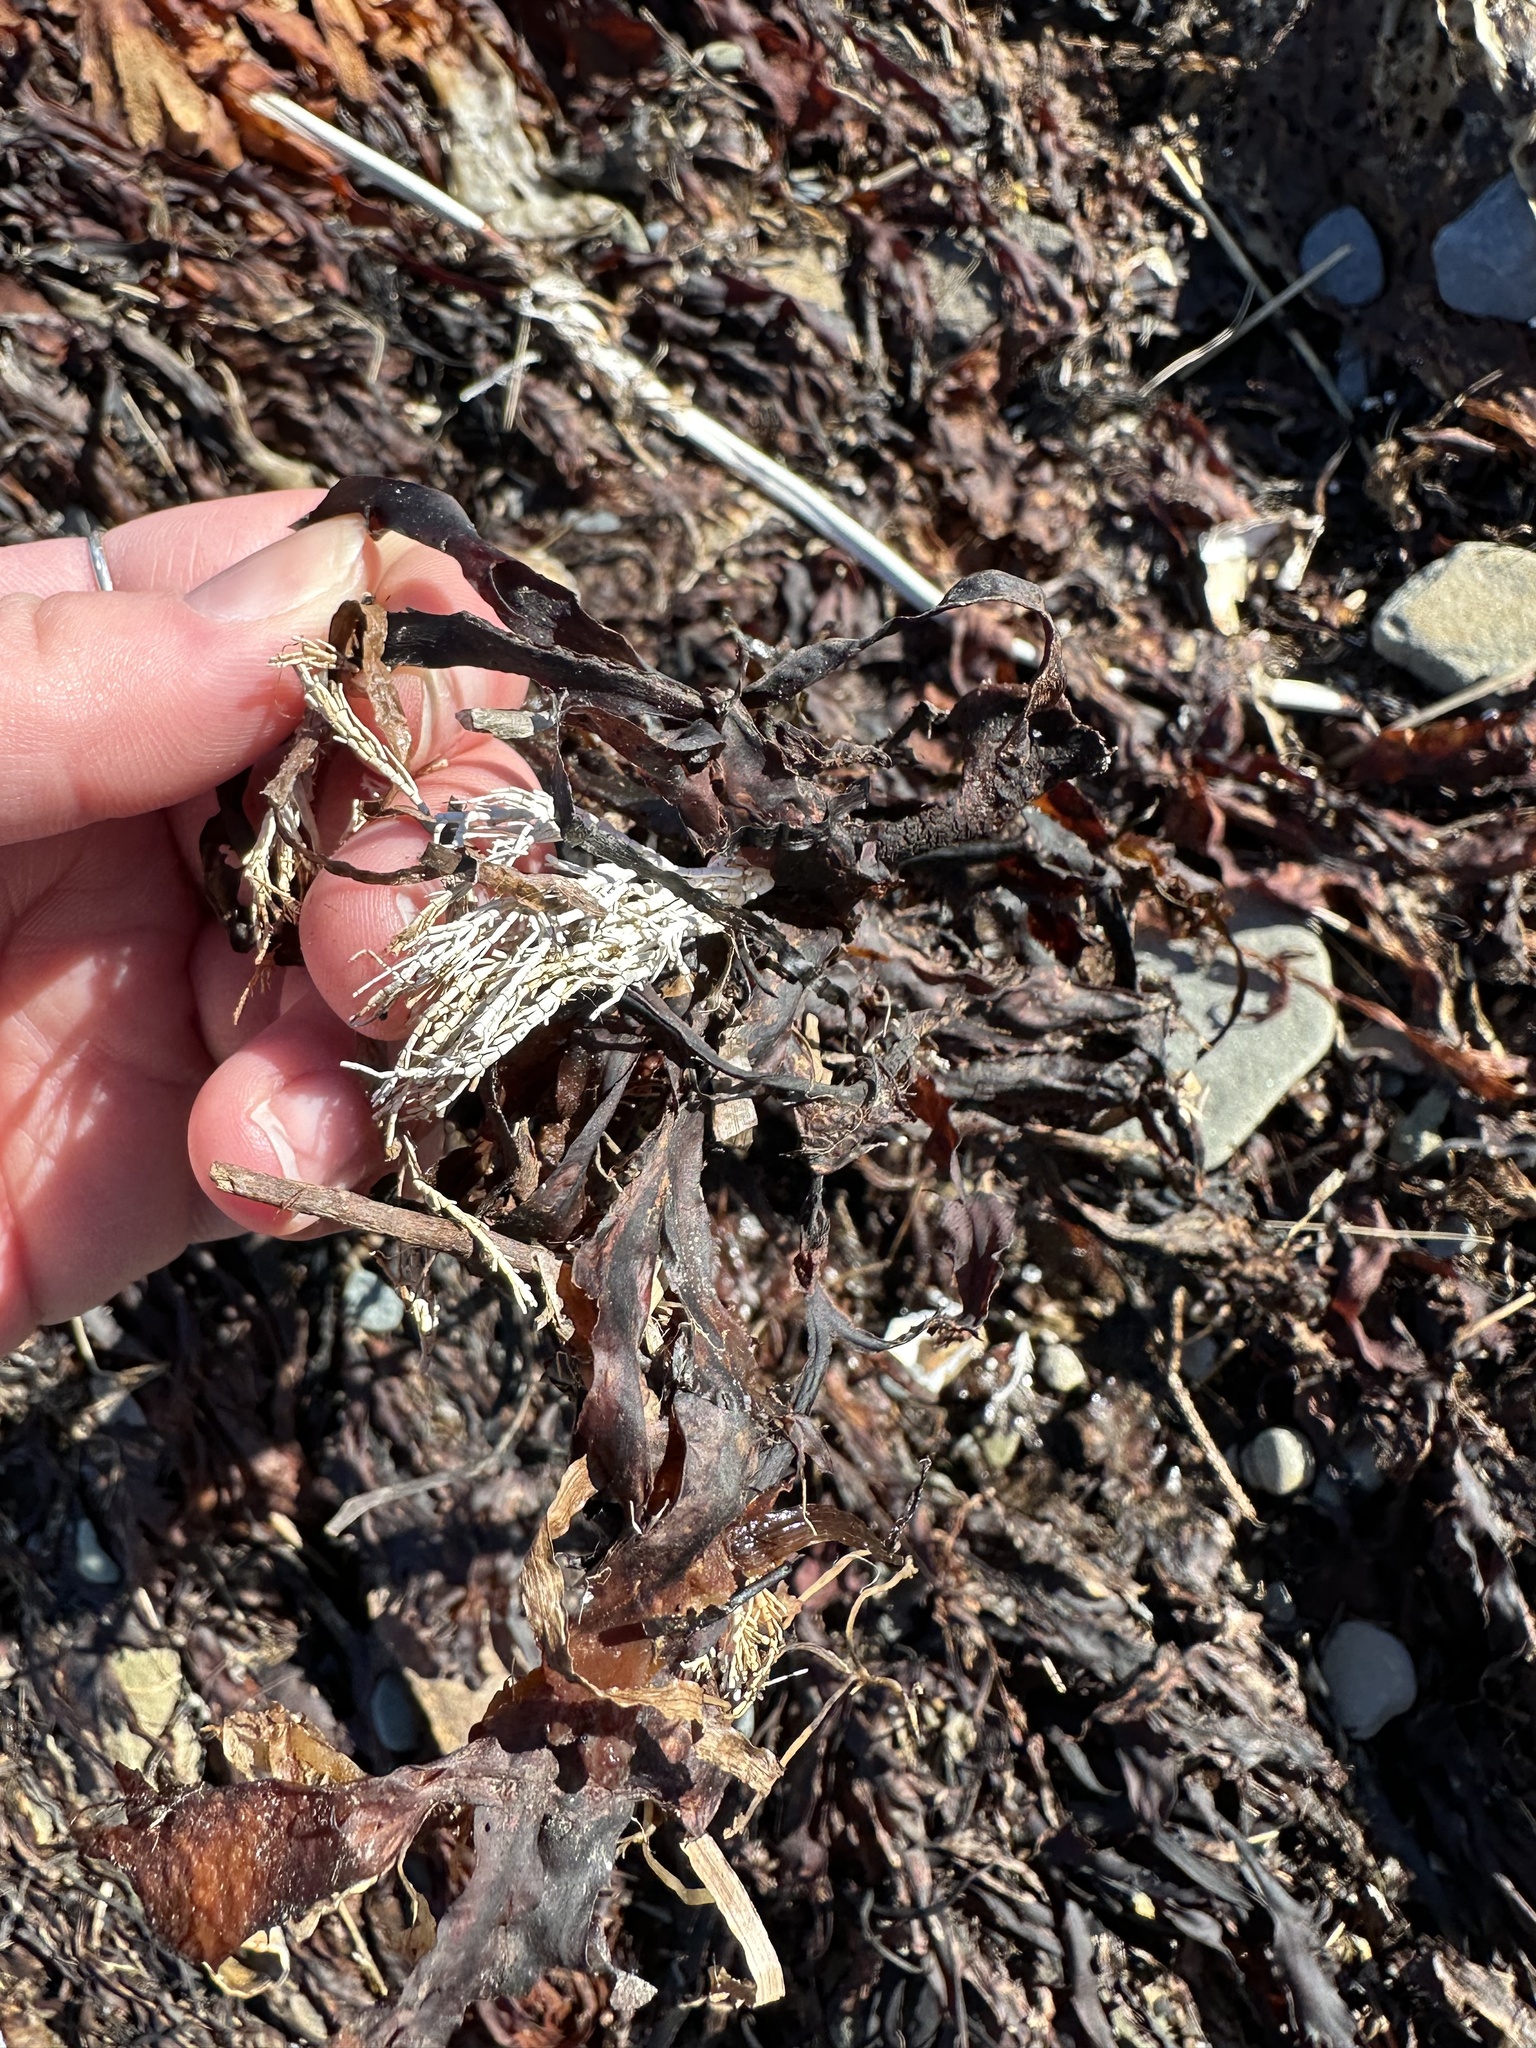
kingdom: Plantae
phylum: Rhodophyta
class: Florideophyceae
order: Corallinales
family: Corallinaceae
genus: Corallina
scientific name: Corallina officinalis
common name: Coral weed
